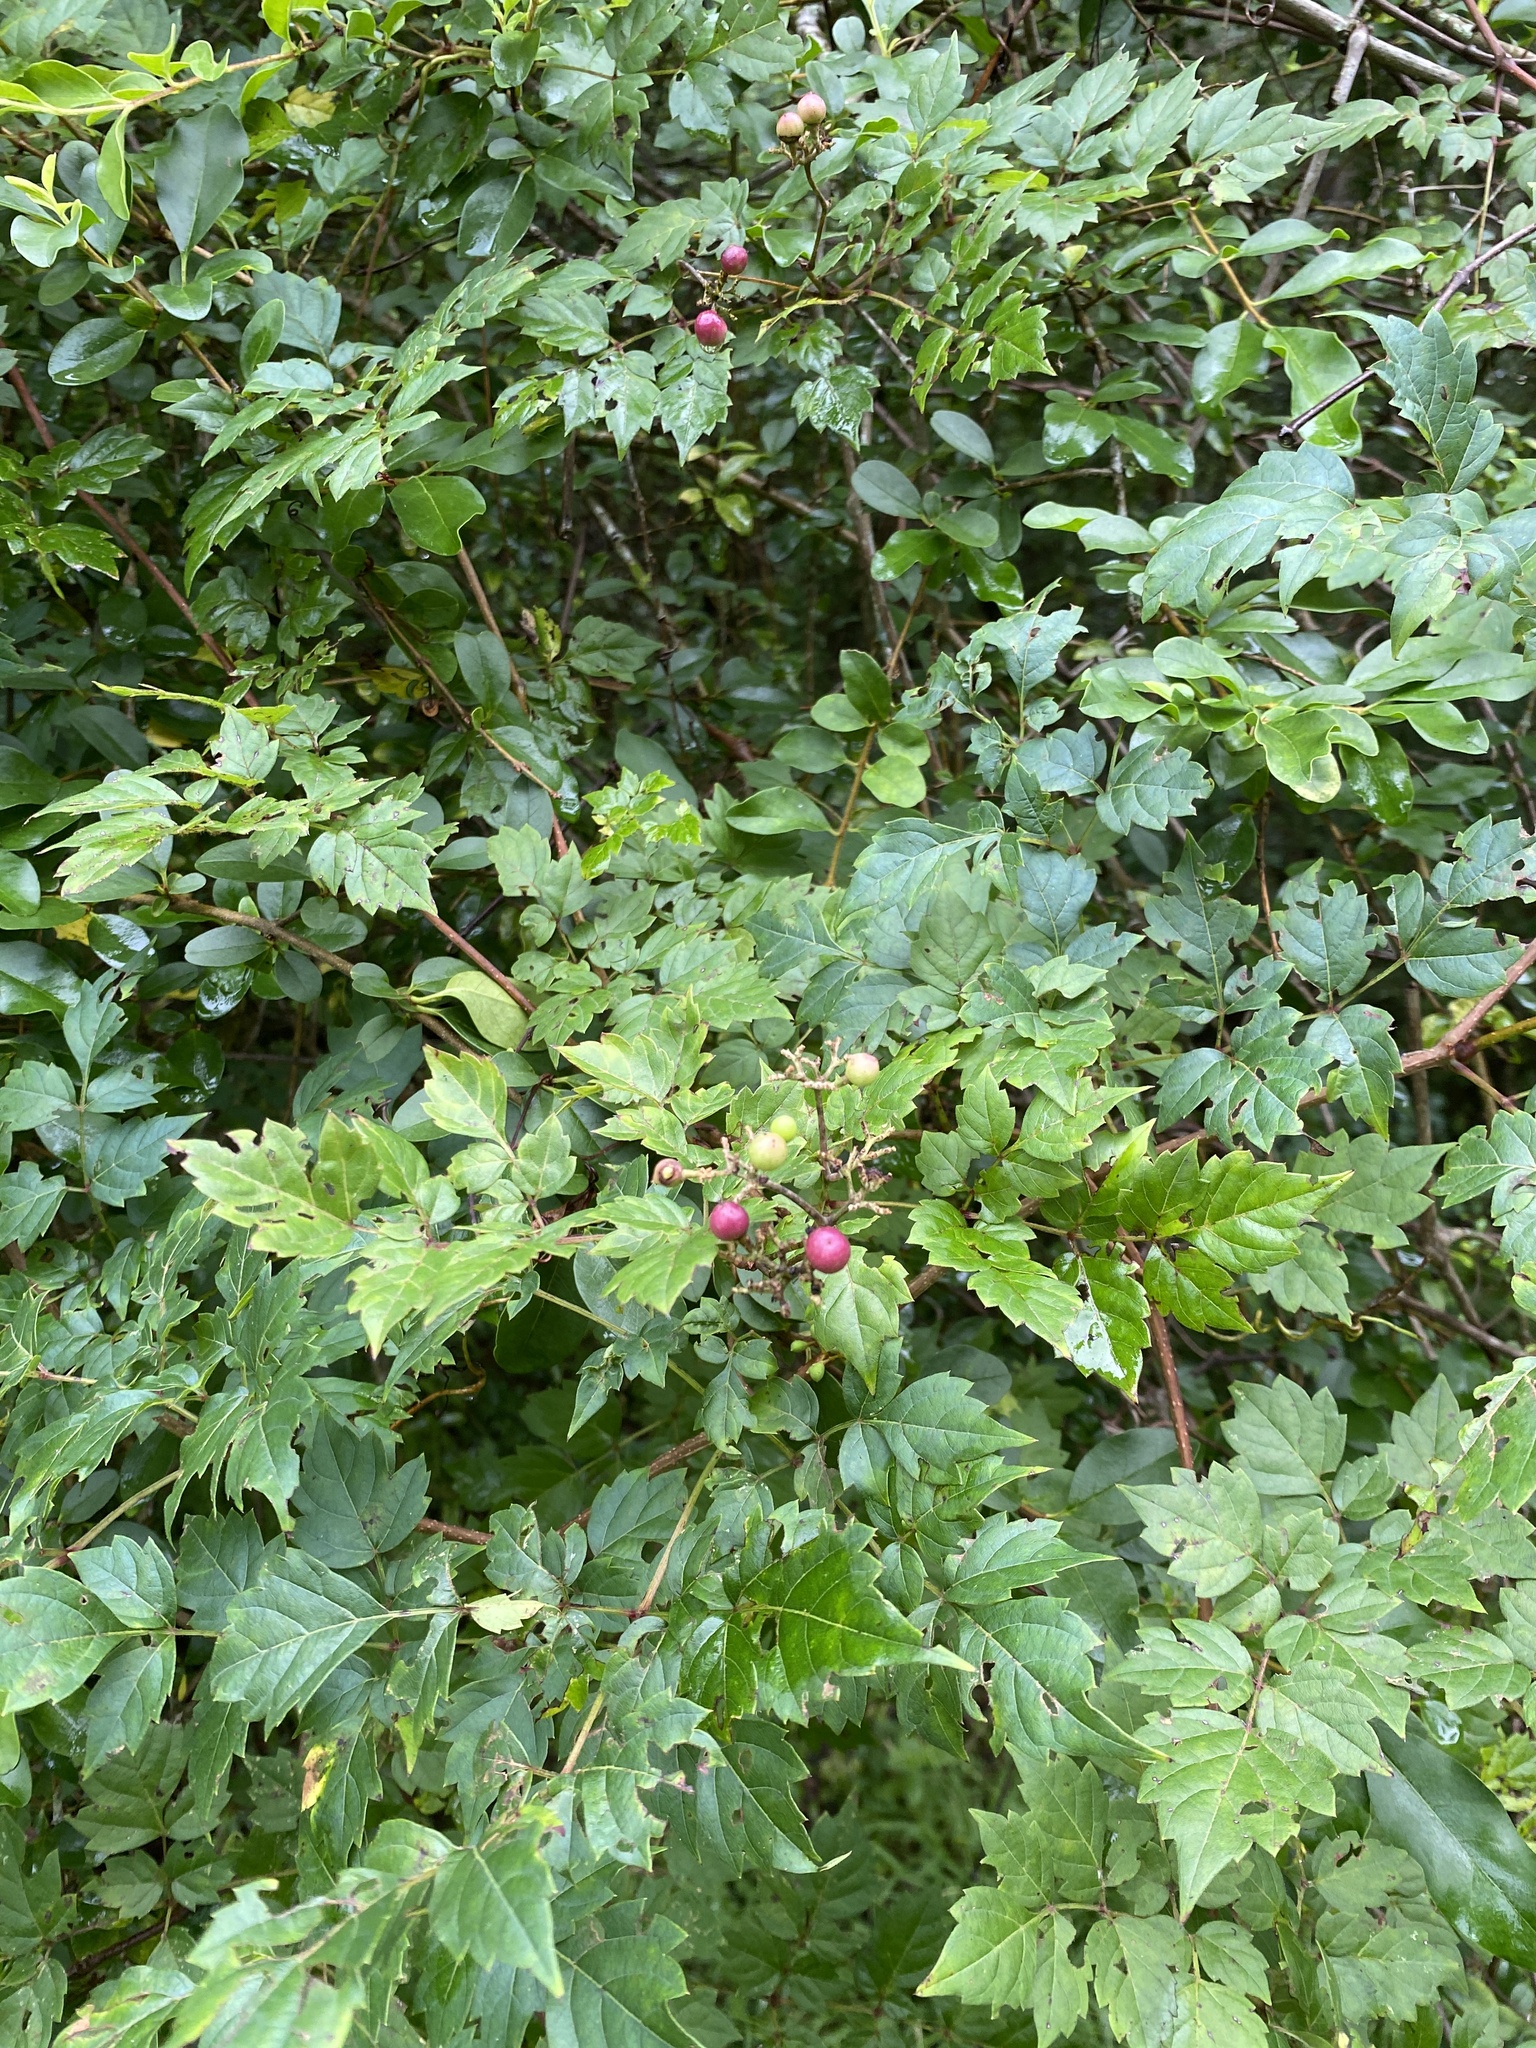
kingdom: Plantae
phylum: Tracheophyta
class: Magnoliopsida
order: Vitales
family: Vitaceae
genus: Nekemias
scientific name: Nekemias arborea
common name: Peppervine
